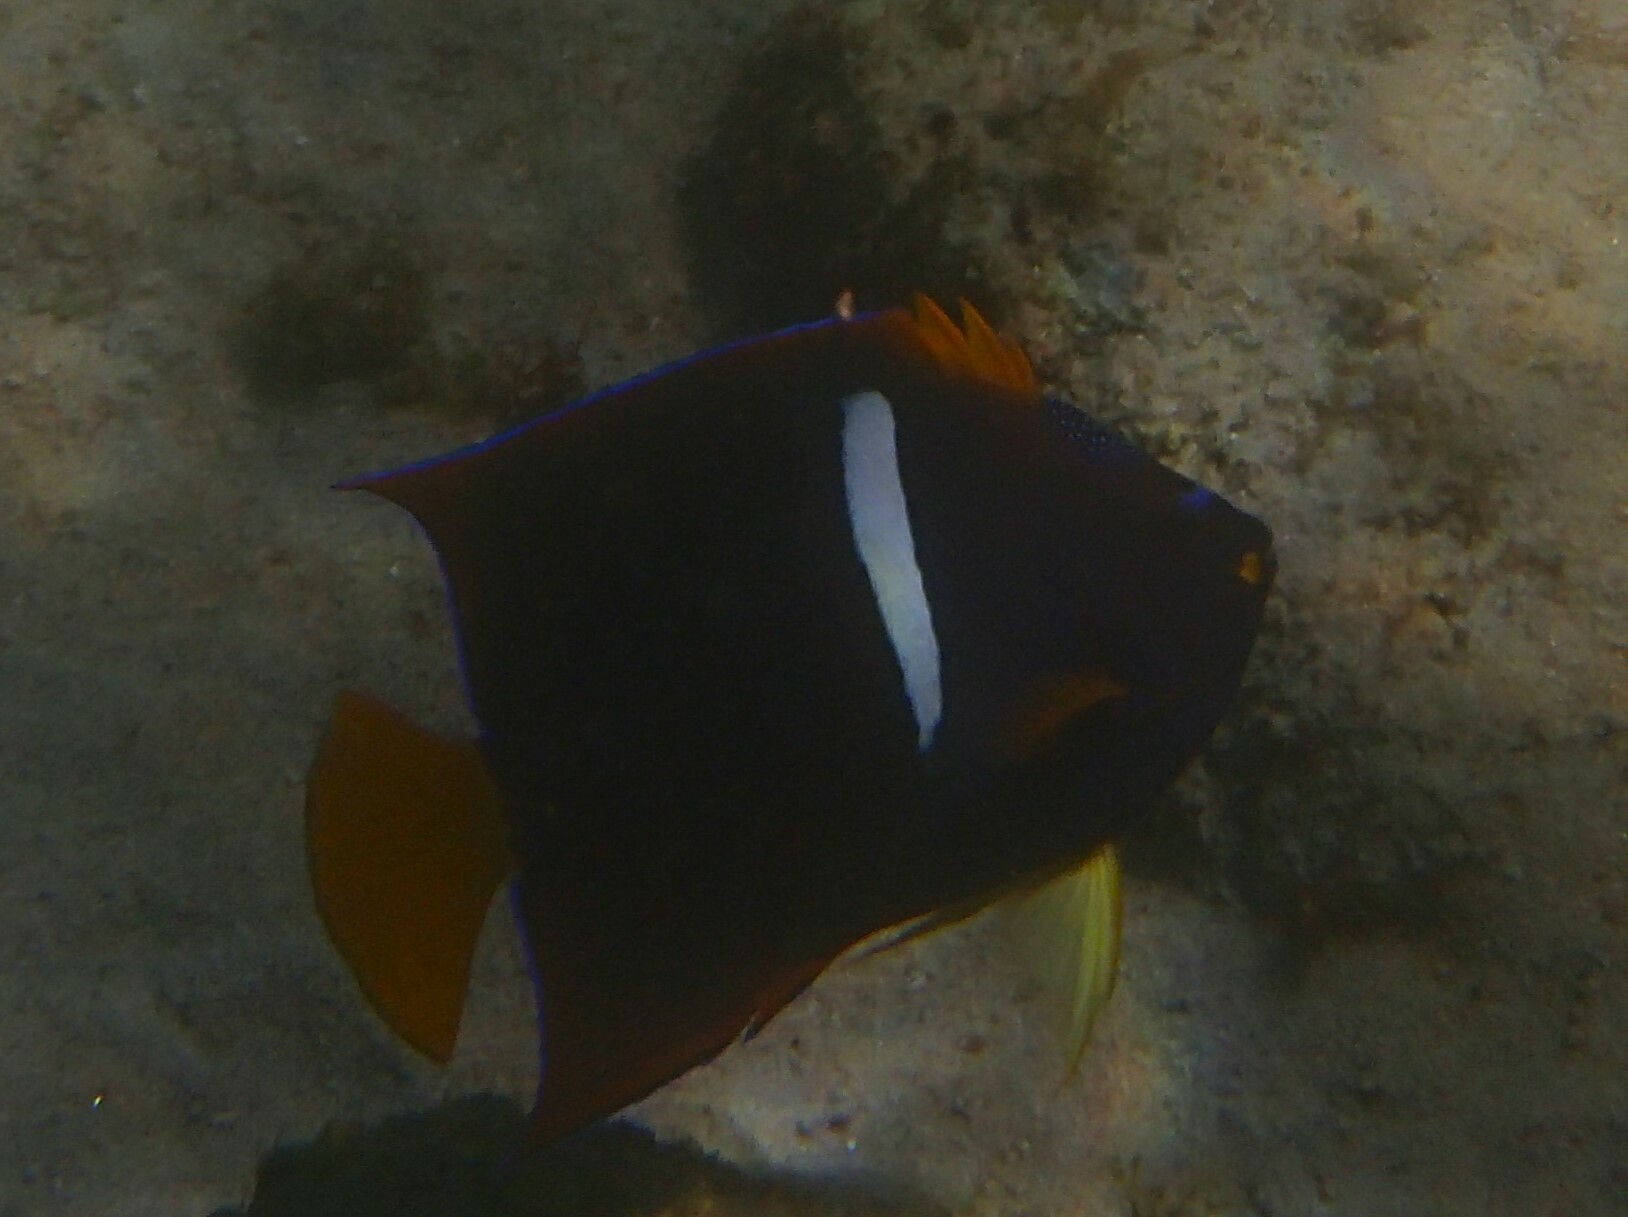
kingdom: Animalia
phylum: Chordata
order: Perciformes
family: Pomacanthidae
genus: Holacanthus
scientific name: Holacanthus passer
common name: King angelfish
